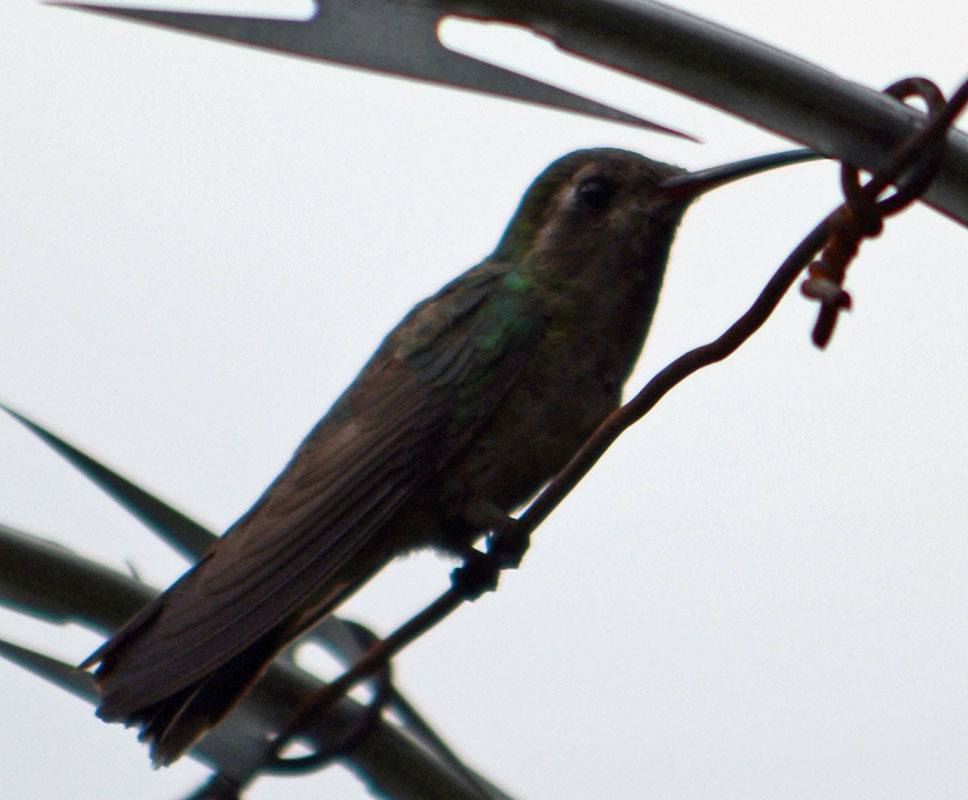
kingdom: Animalia
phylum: Chordata
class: Aves
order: Apodiformes
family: Trochilidae
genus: Cynanthus
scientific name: Cynanthus latirostris
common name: Broad-billed hummingbird
